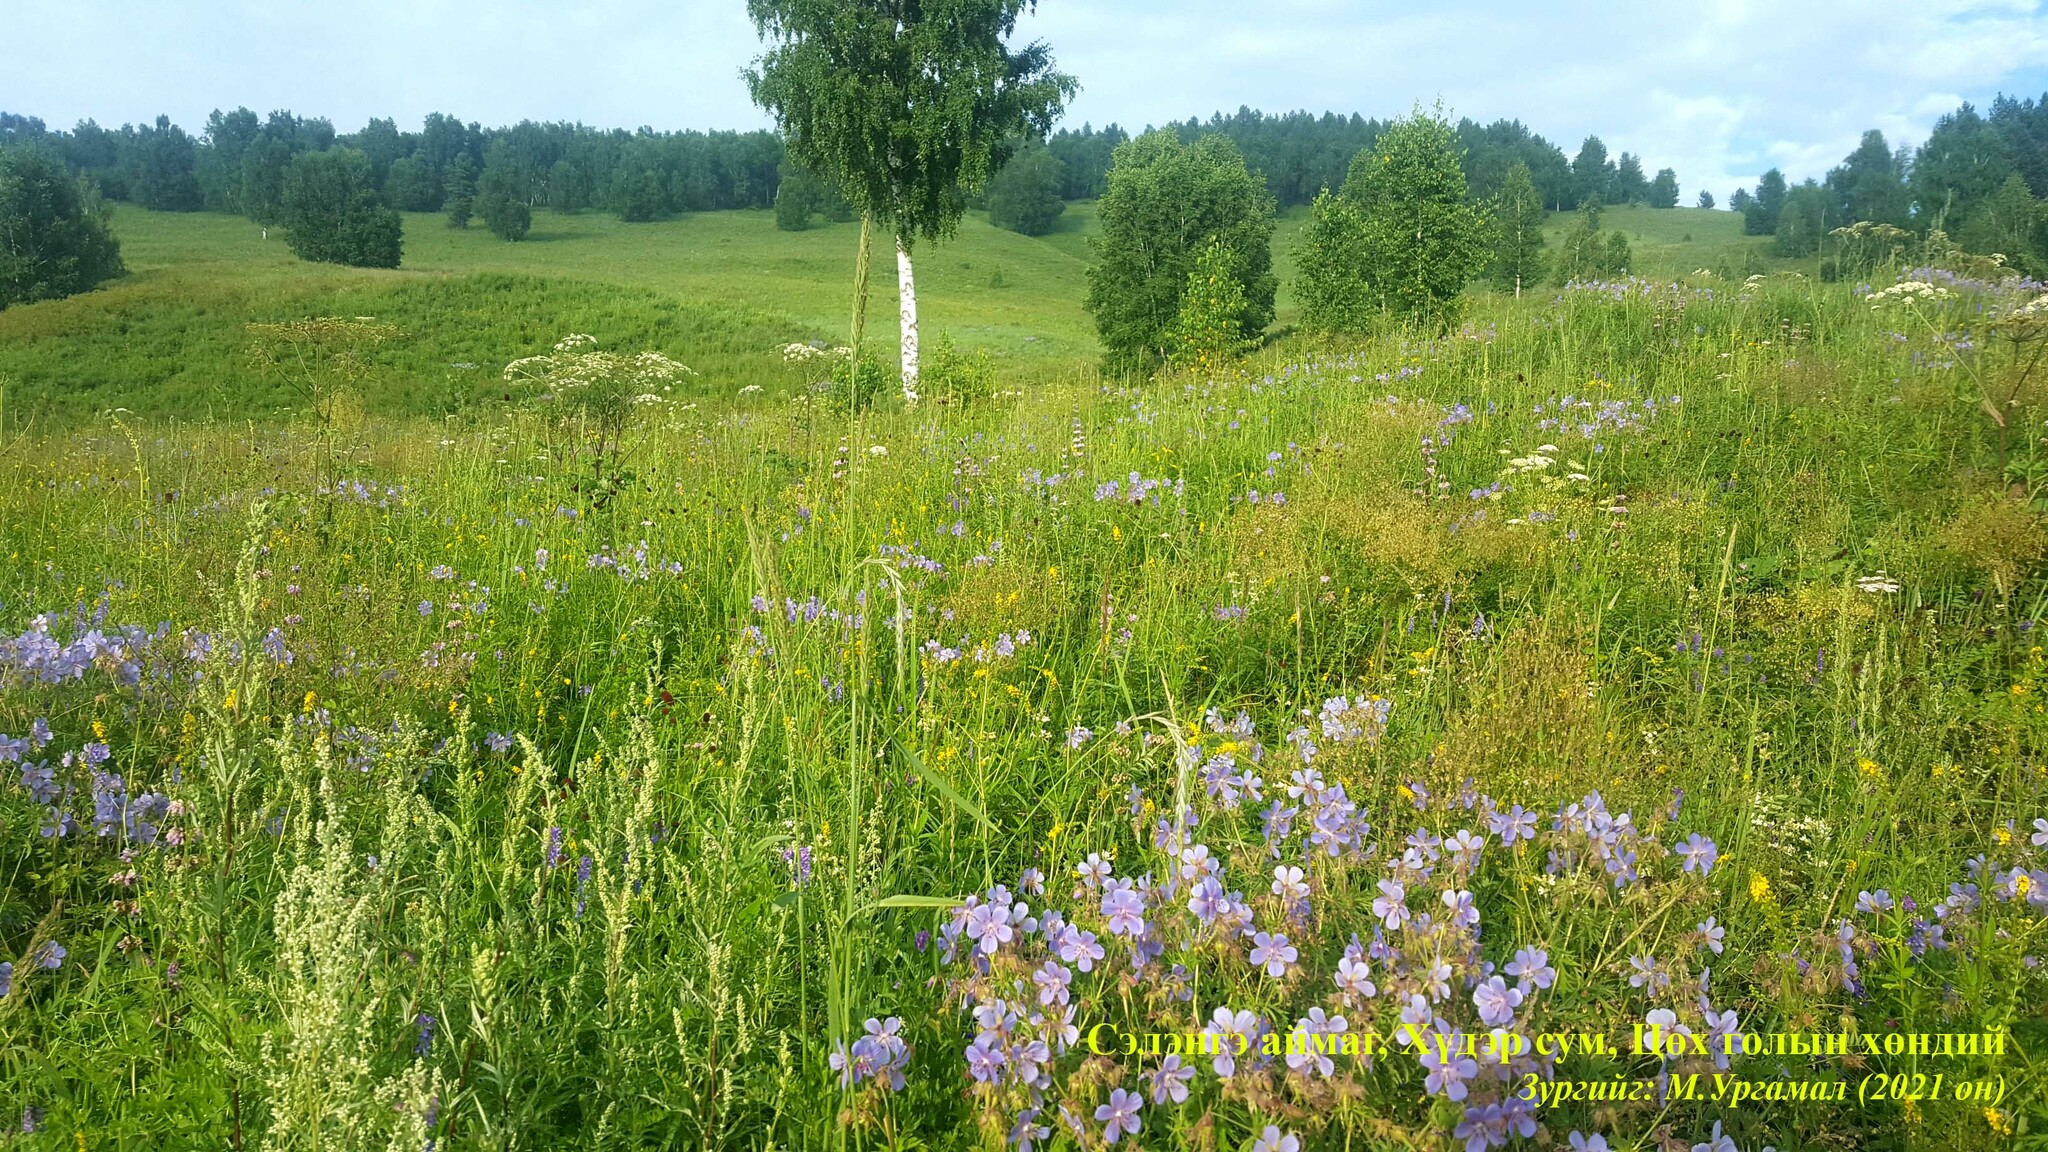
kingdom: Plantae
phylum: Tracheophyta
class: Magnoliopsida
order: Geraniales
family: Geraniaceae
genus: Geranium
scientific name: Geranium pratense
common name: Meadow crane's-bill
